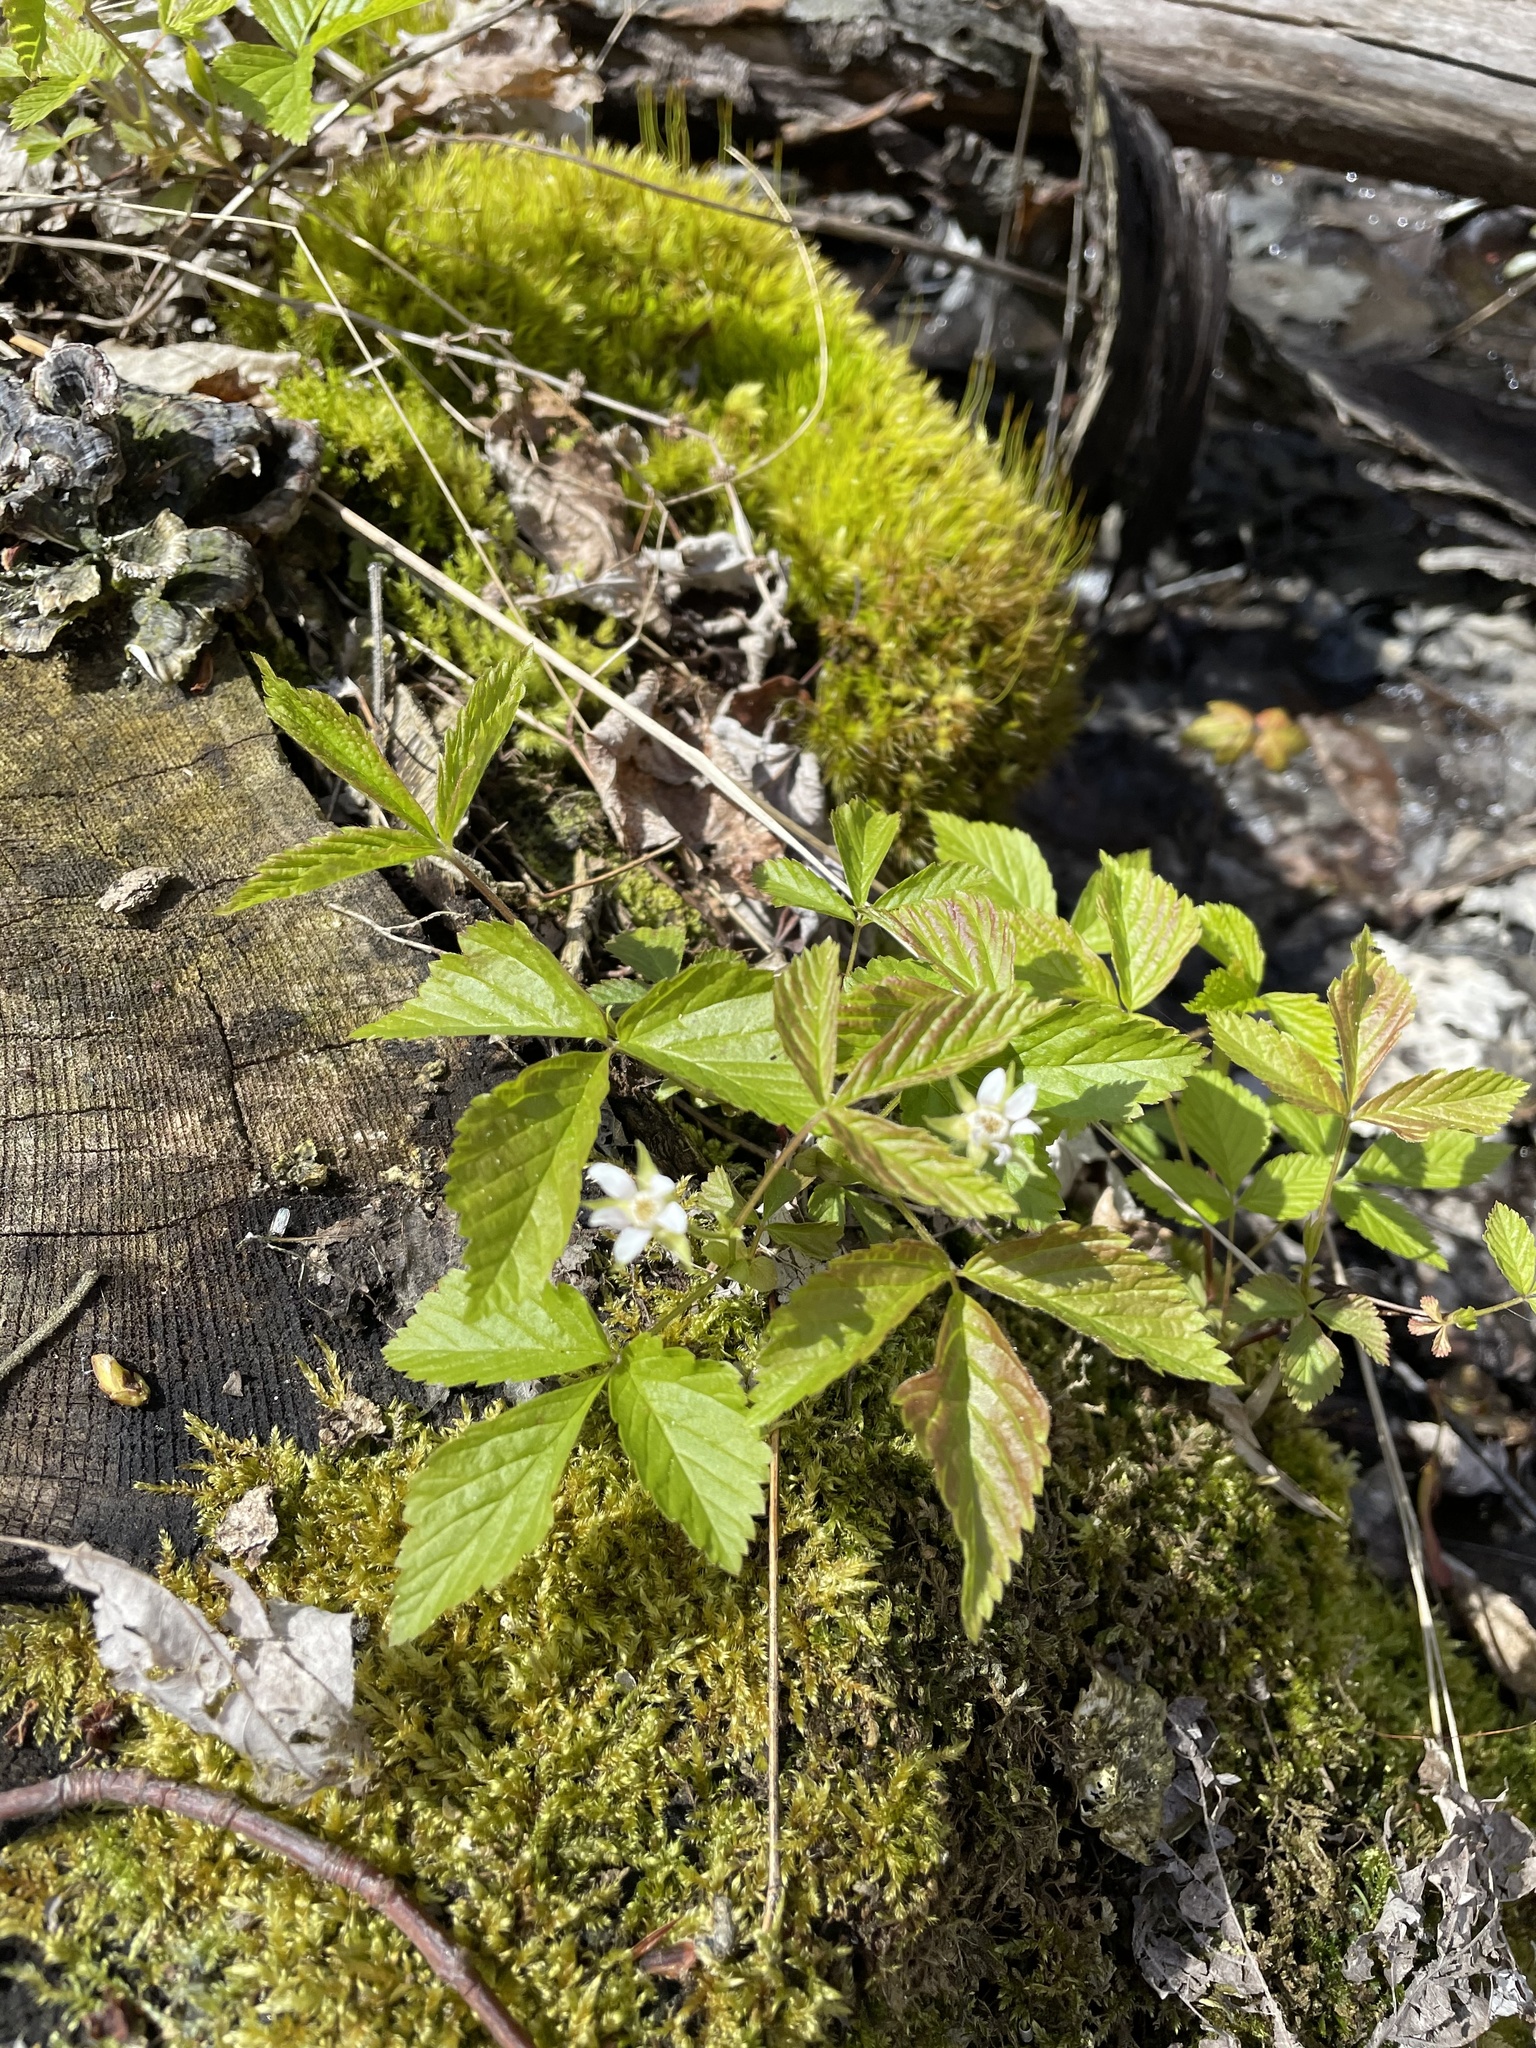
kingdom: Plantae
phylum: Tracheophyta
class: Magnoliopsida
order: Rosales
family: Rosaceae
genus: Rubus
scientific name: Rubus pubescens
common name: Dwarf raspberry
